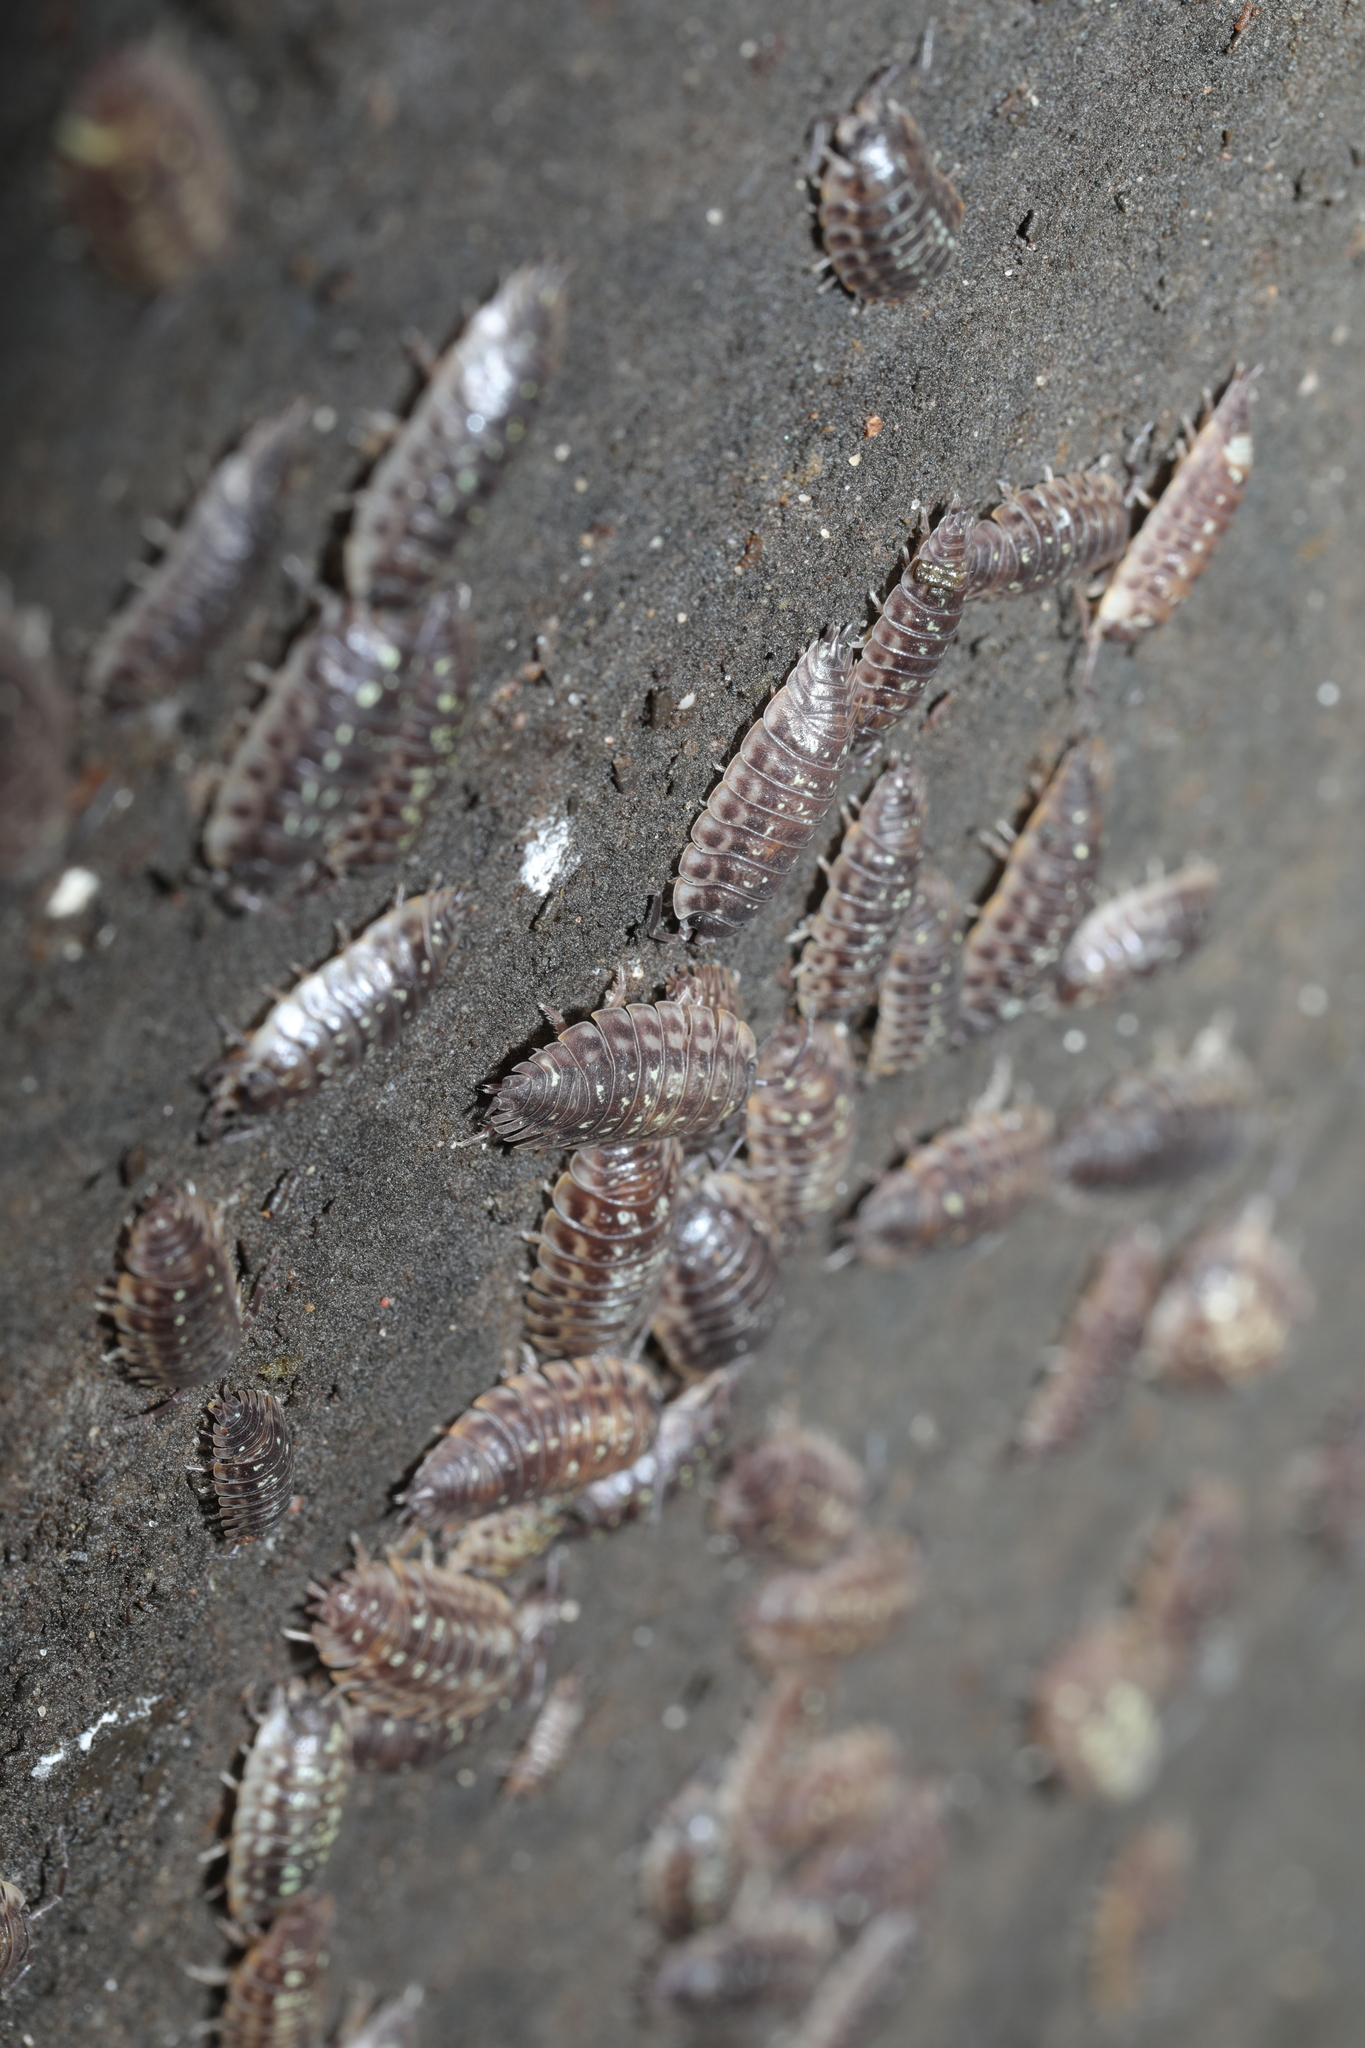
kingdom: Animalia
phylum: Arthropoda
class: Malacostraca
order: Isopoda
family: Oniscidae
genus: Oniscus
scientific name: Oniscus asellus
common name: Common shiny woodlouse
